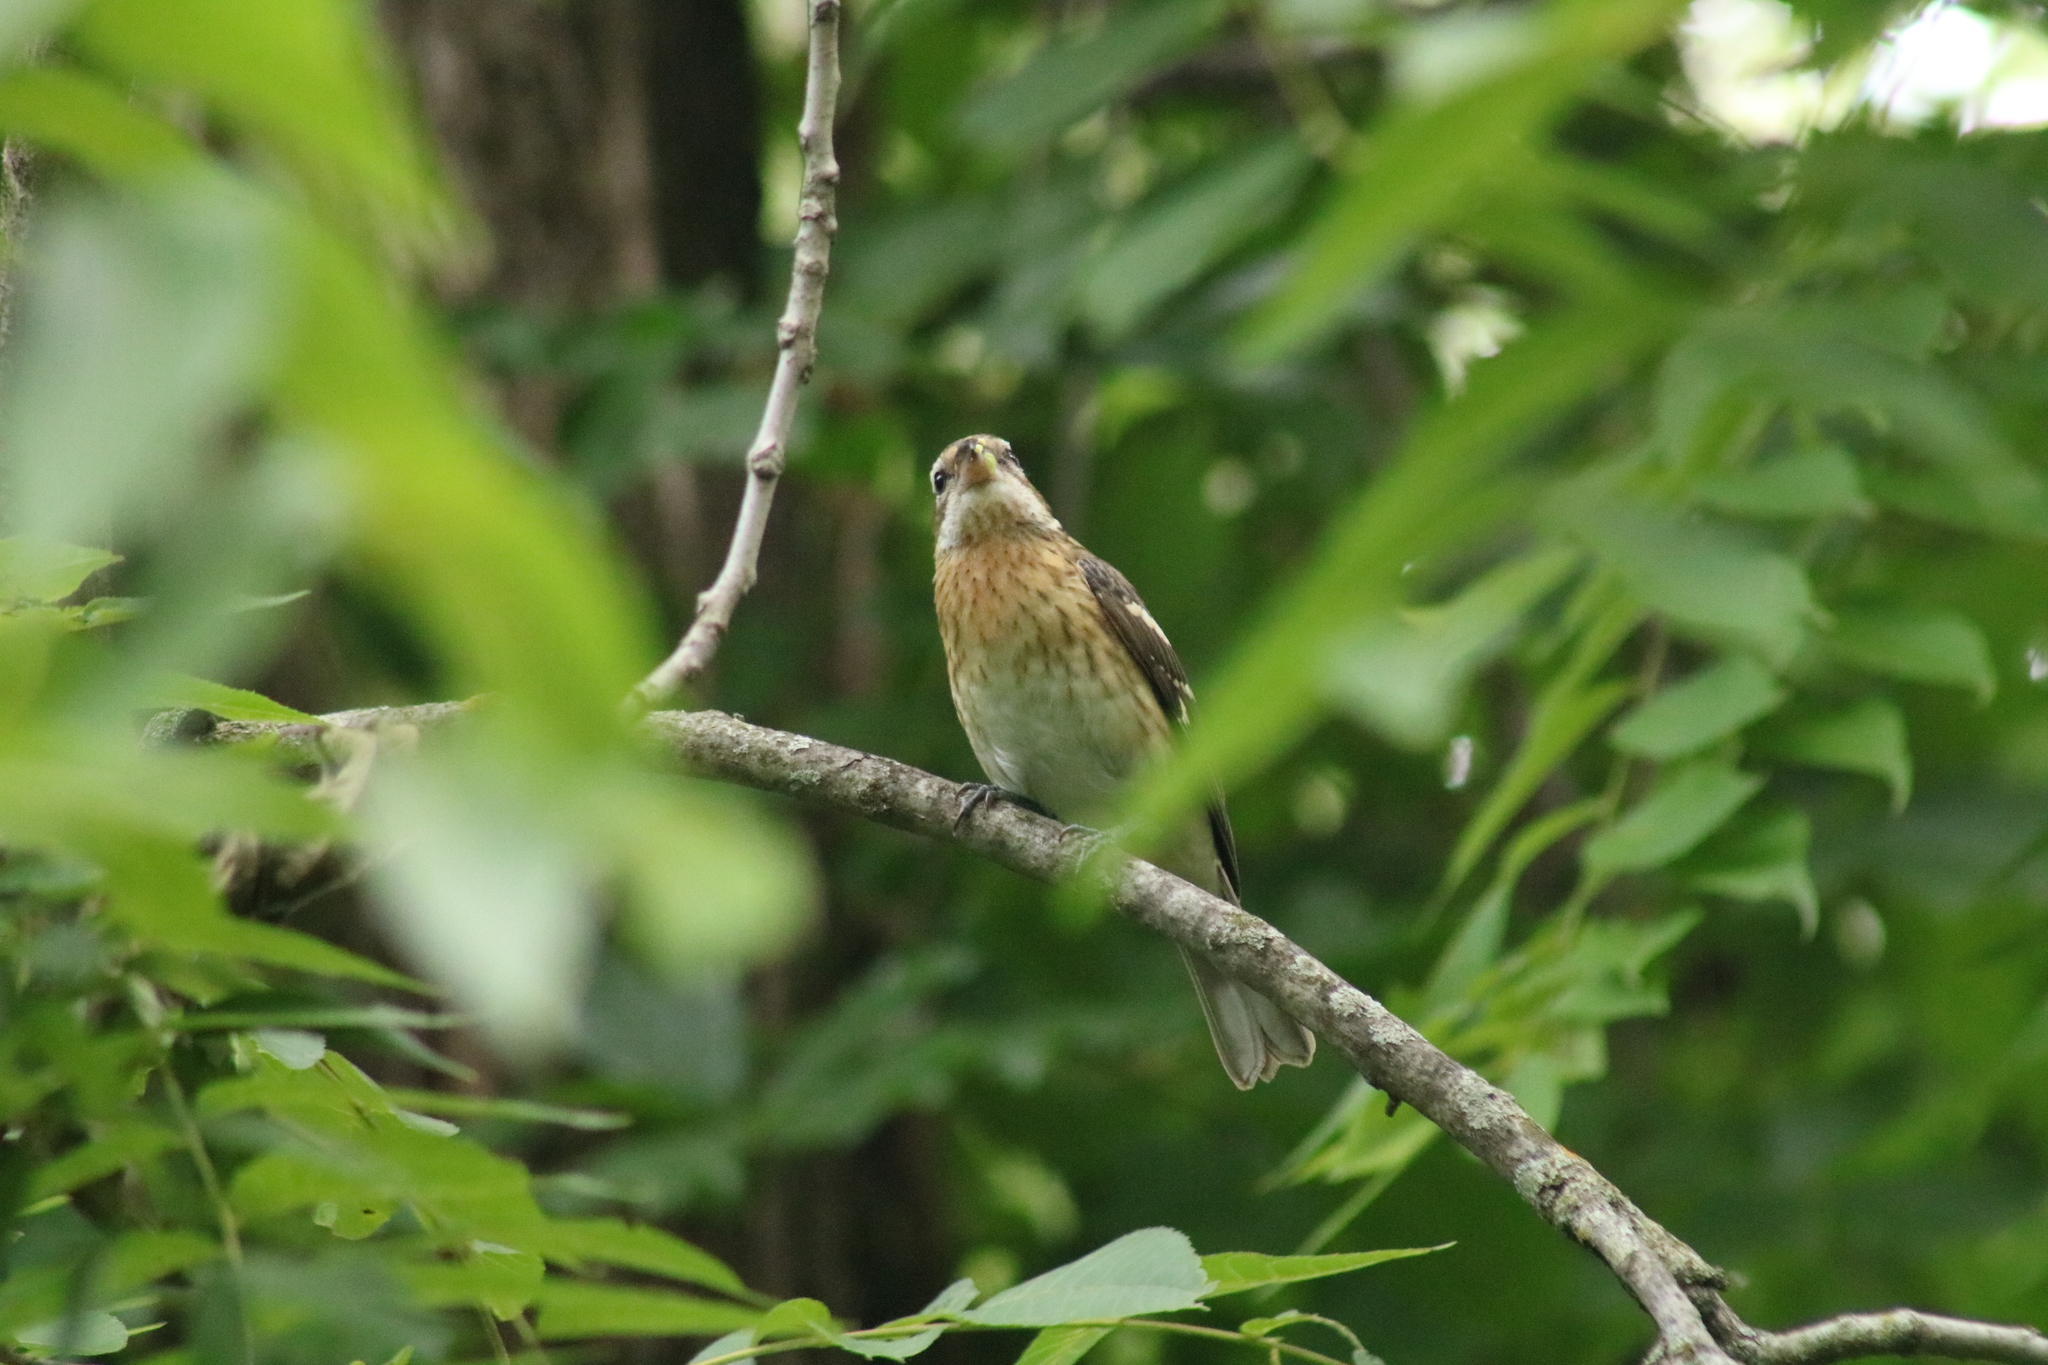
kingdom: Animalia
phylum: Chordata
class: Aves
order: Passeriformes
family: Cardinalidae
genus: Pheucticus
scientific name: Pheucticus ludovicianus
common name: Rose-breasted grosbeak
